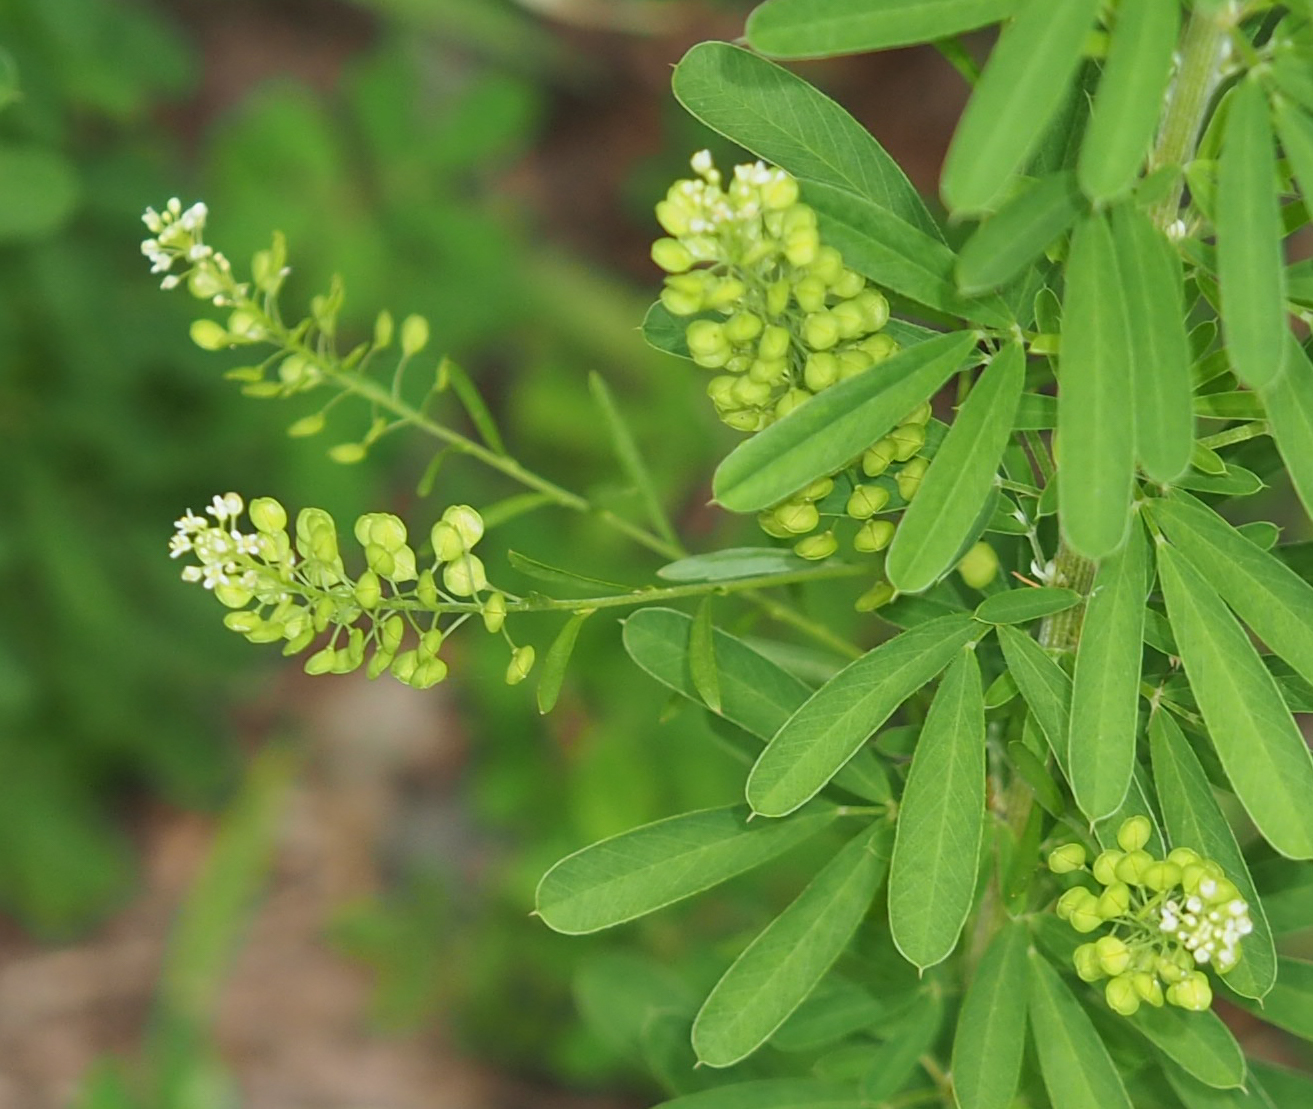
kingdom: Plantae
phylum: Tracheophyta
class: Magnoliopsida
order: Brassicales
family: Brassicaceae
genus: Lepidium
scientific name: Lepidium virginicum
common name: Least pepperwort
